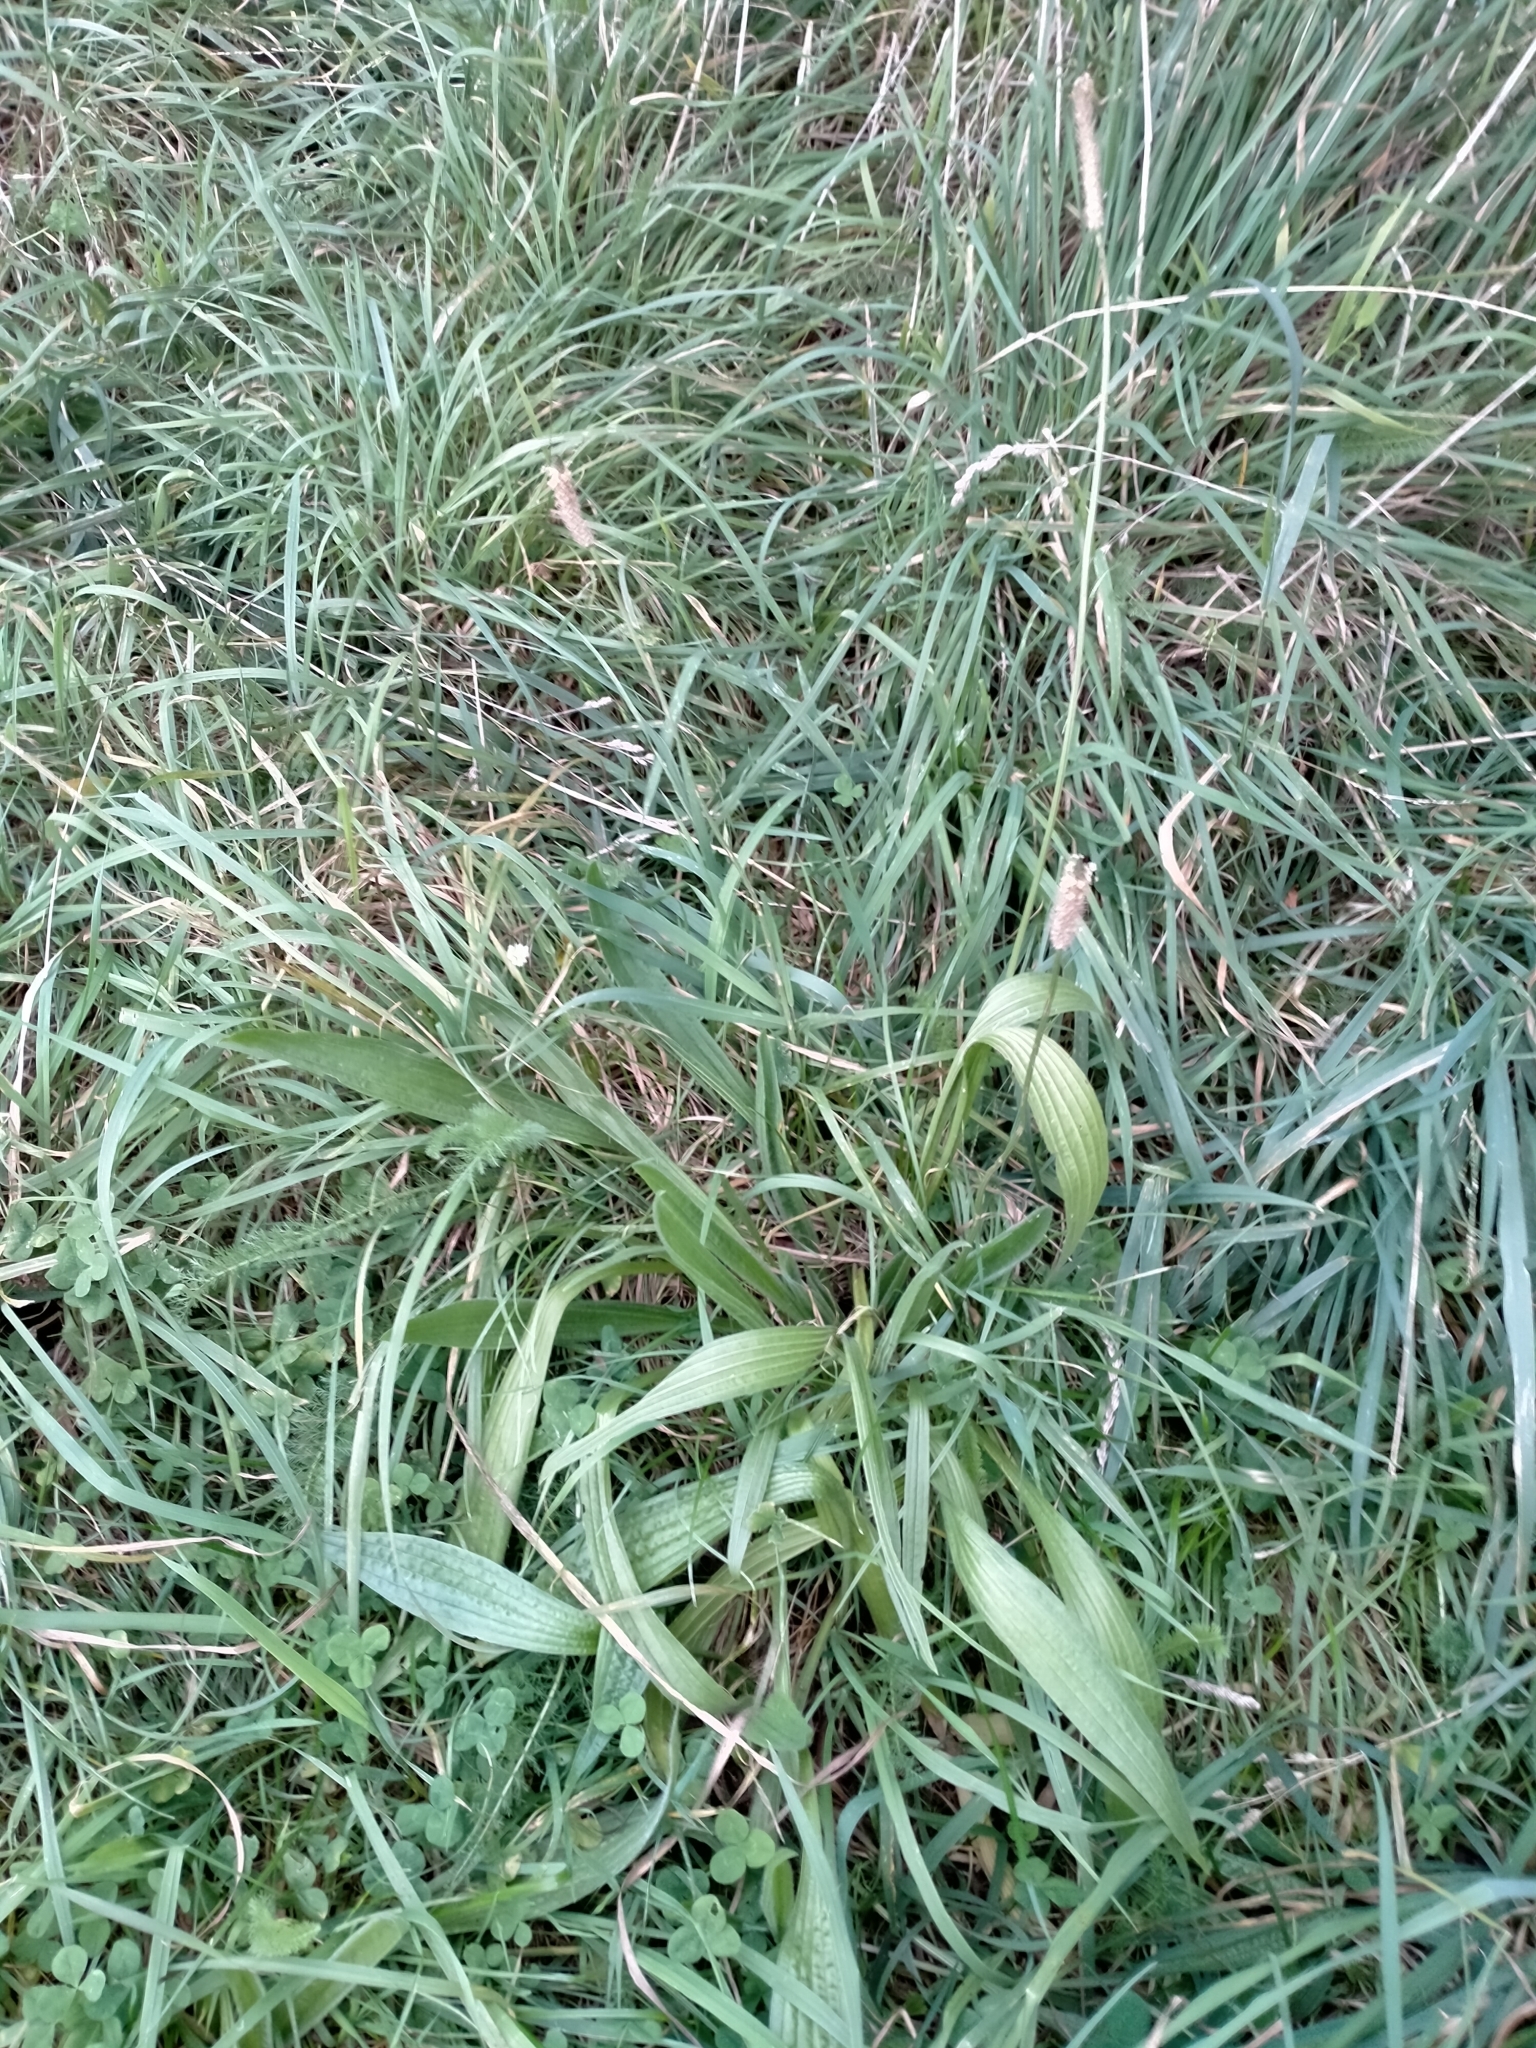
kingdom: Plantae
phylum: Tracheophyta
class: Magnoliopsida
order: Lamiales
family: Plantaginaceae
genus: Plantago
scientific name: Plantago lanceolata
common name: Ribwort plantain
